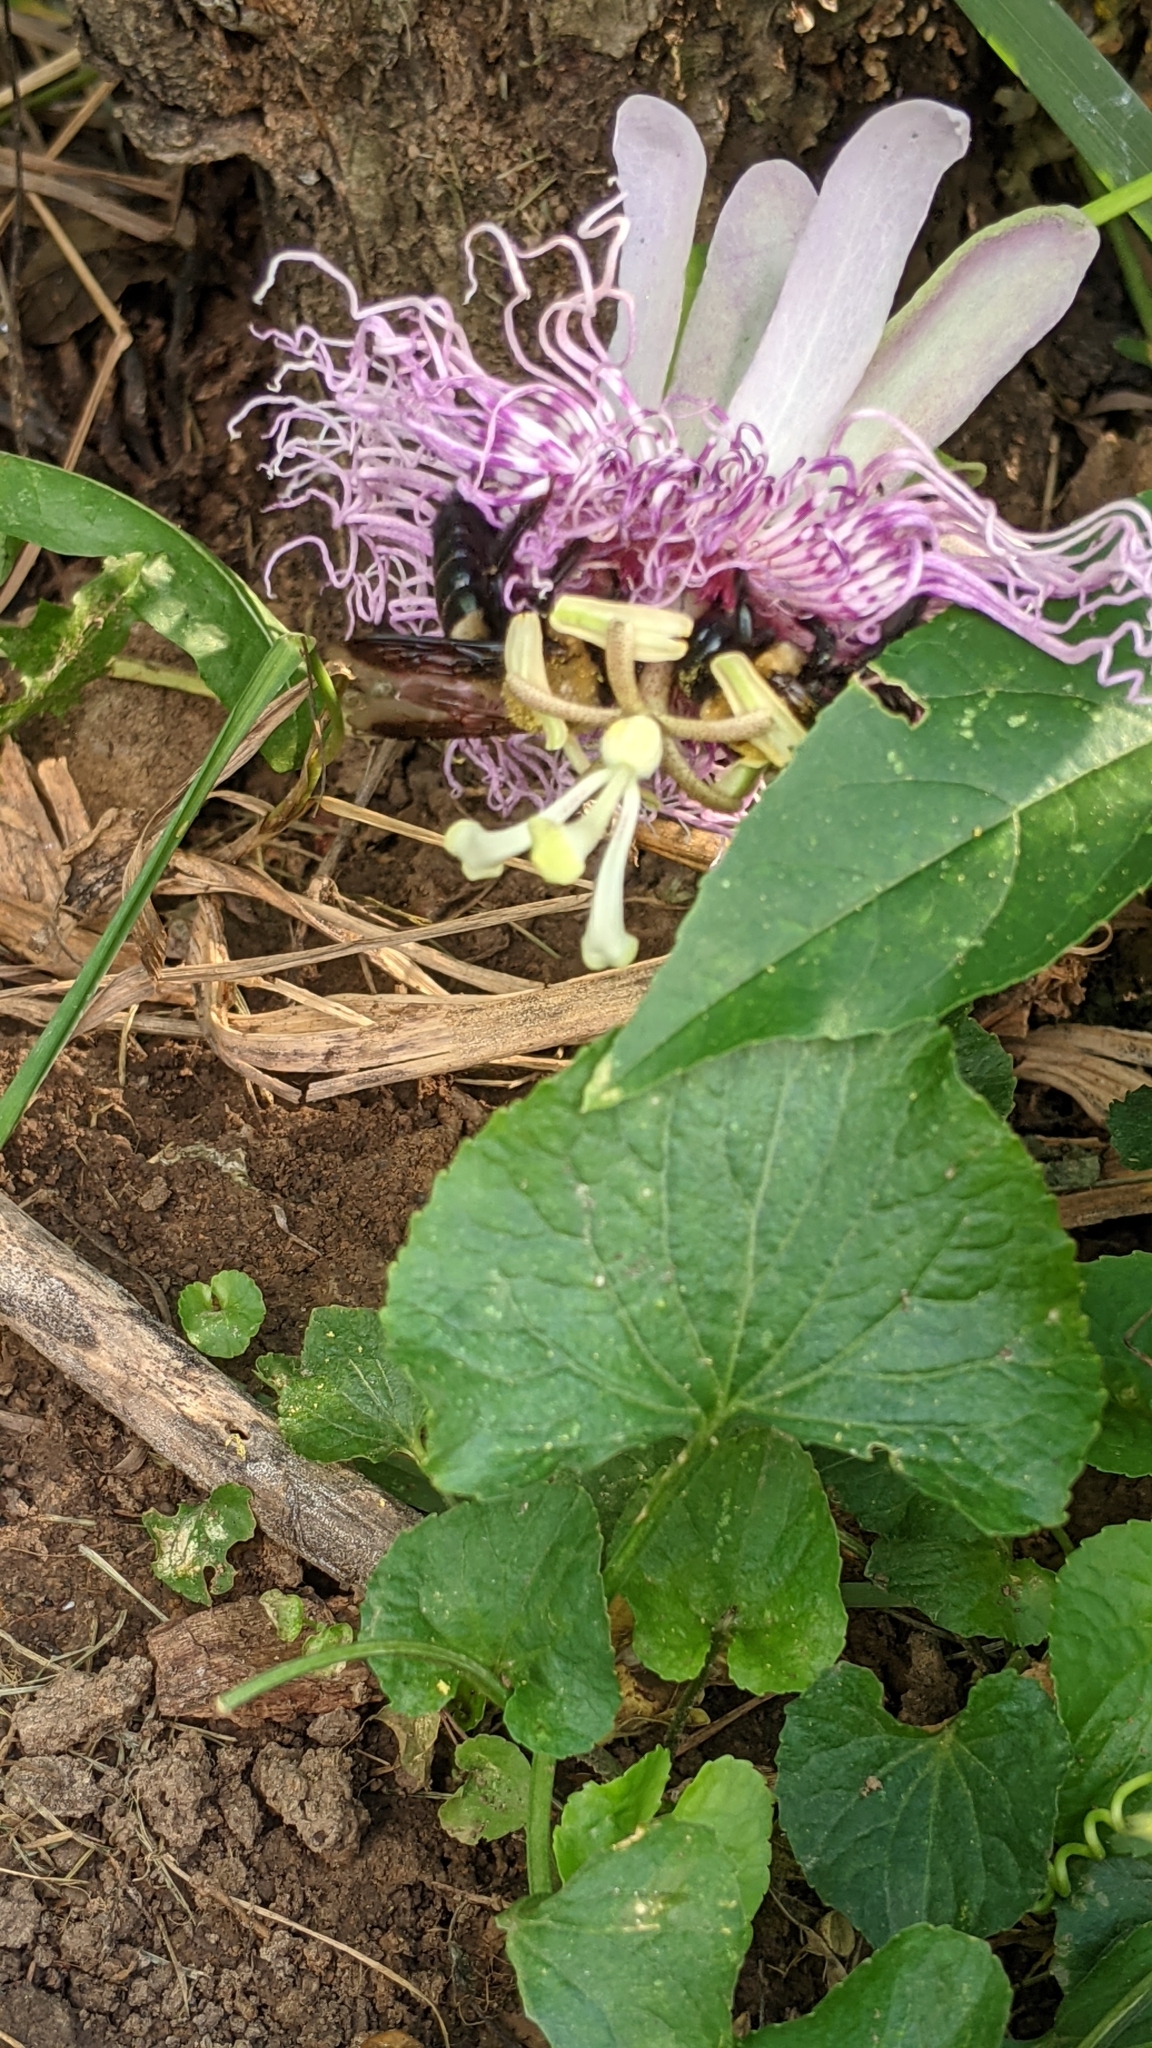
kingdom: Animalia
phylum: Arthropoda
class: Insecta
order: Hymenoptera
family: Apidae
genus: Xylocopa
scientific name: Xylocopa virginica
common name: Carpenter bee
